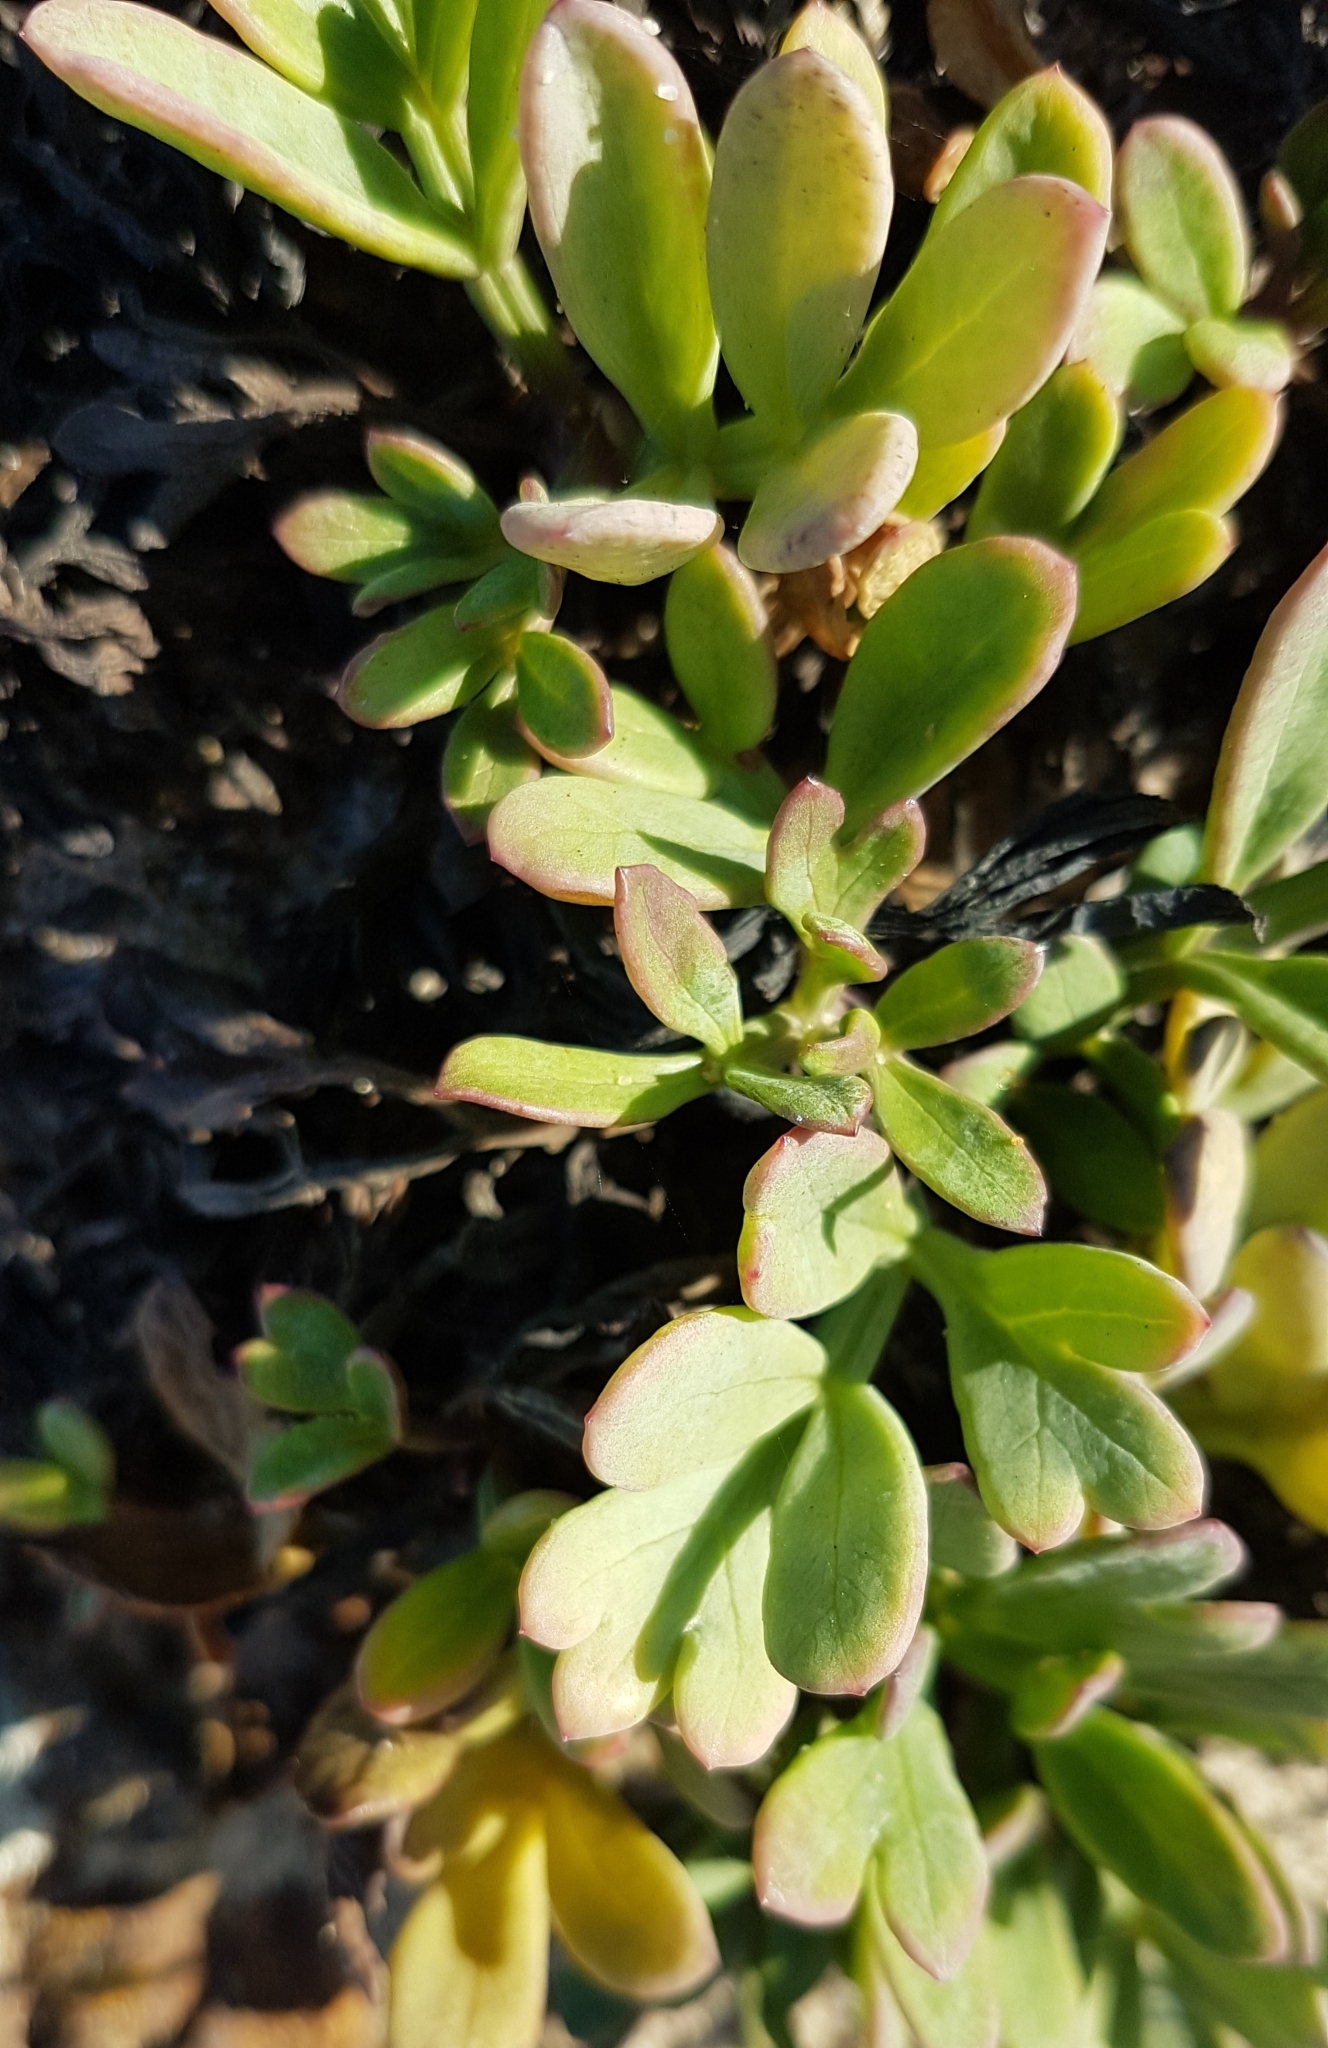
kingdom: Plantae
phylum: Tracheophyta
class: Magnoliopsida
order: Apiales
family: Apiaceae
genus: Crithmum
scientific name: Crithmum maritimum
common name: Rock samphire
